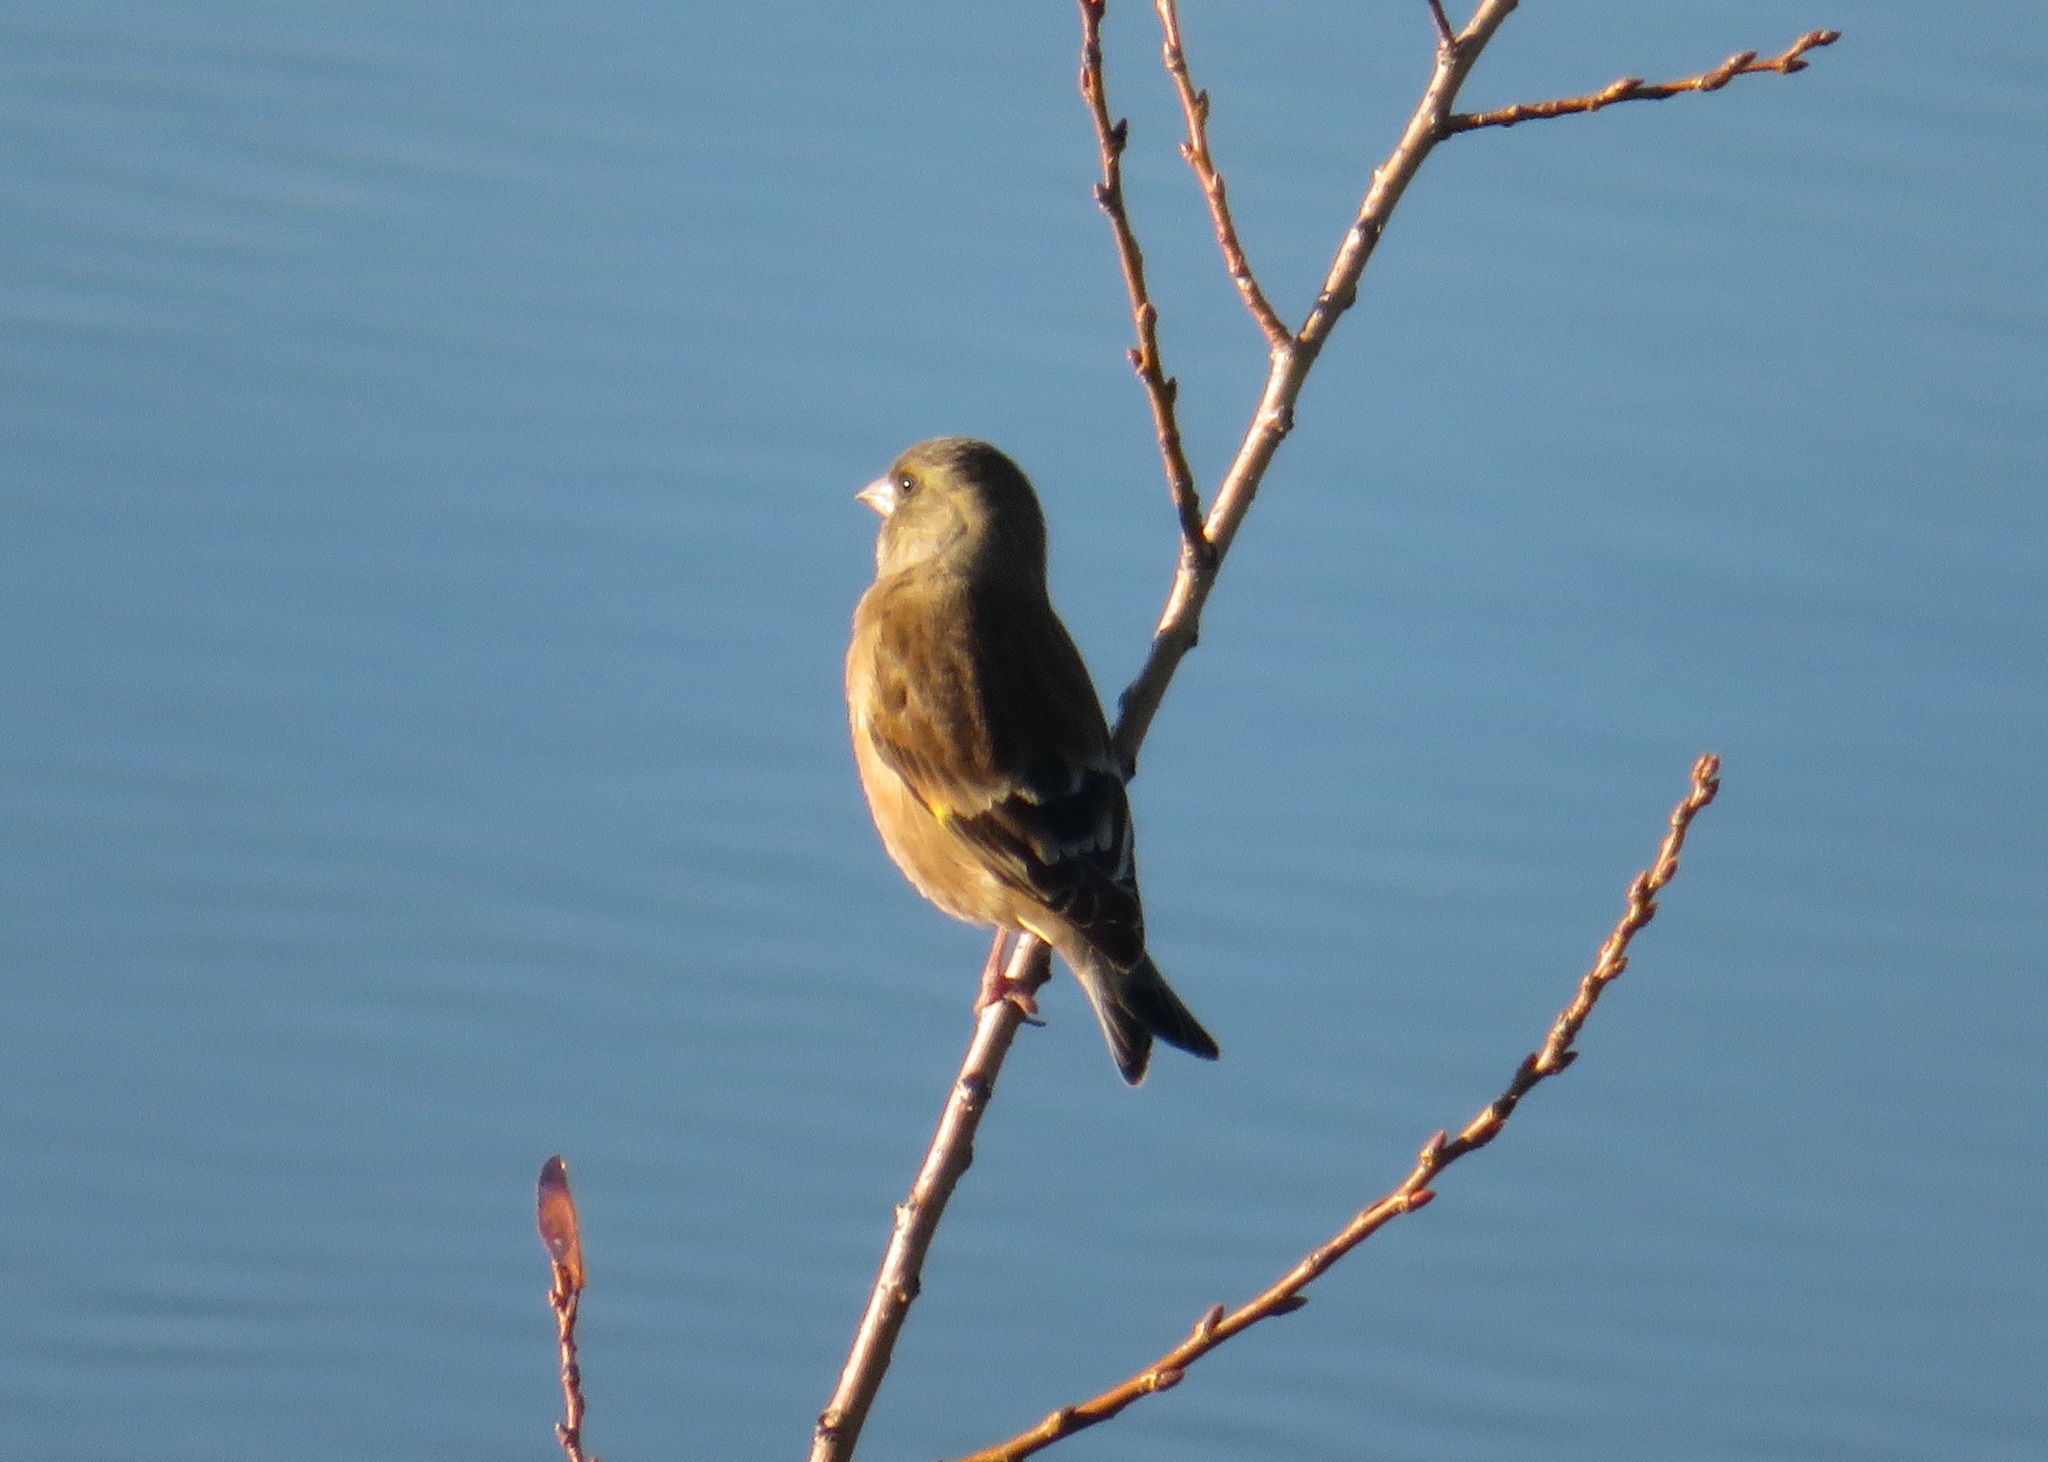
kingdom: Plantae
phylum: Tracheophyta
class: Liliopsida
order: Poales
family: Poaceae
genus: Chloris
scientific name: Chloris sinica
